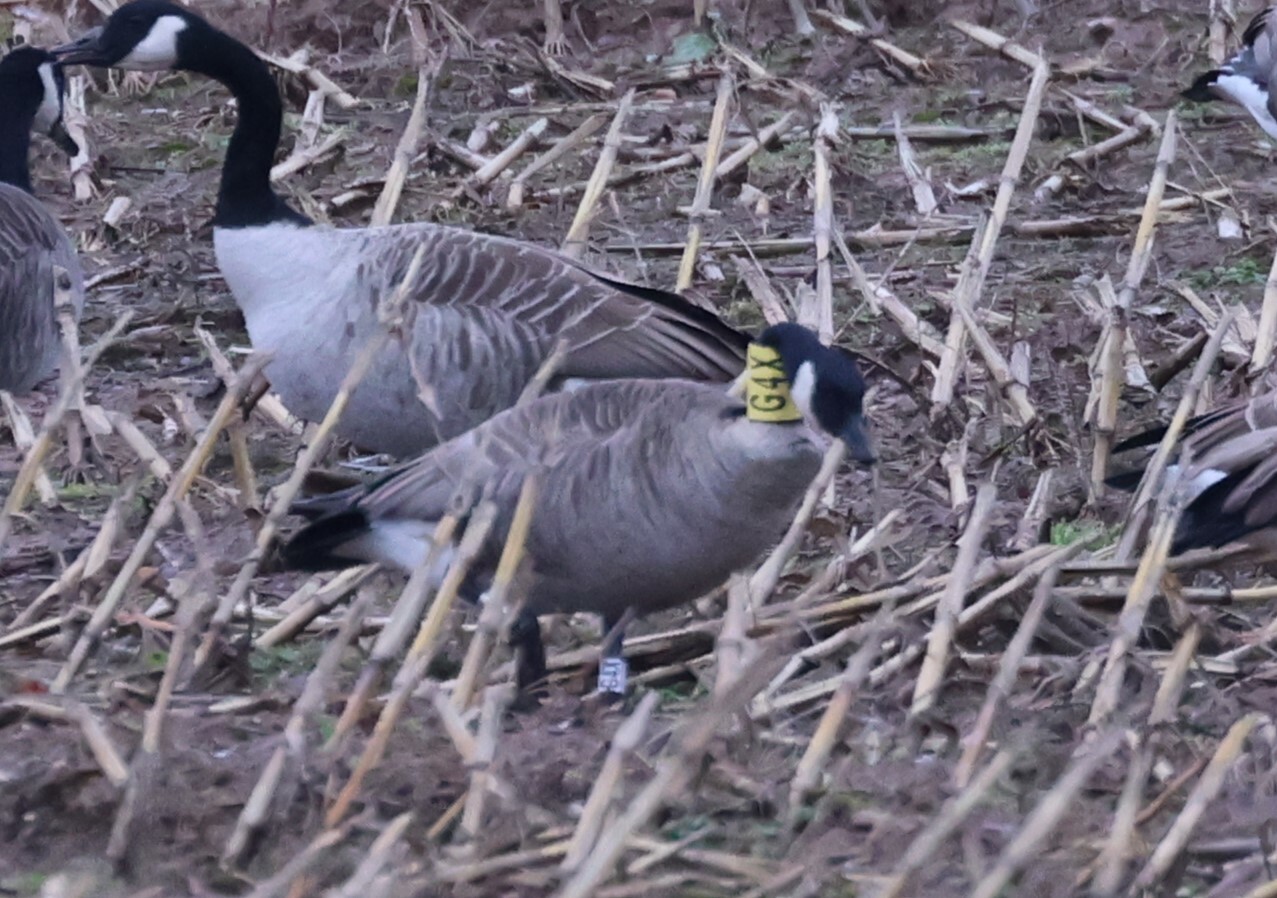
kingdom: Animalia
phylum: Chordata
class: Aves
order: Anseriformes
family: Anatidae
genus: Branta
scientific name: Branta canadensis
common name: Canada goose
